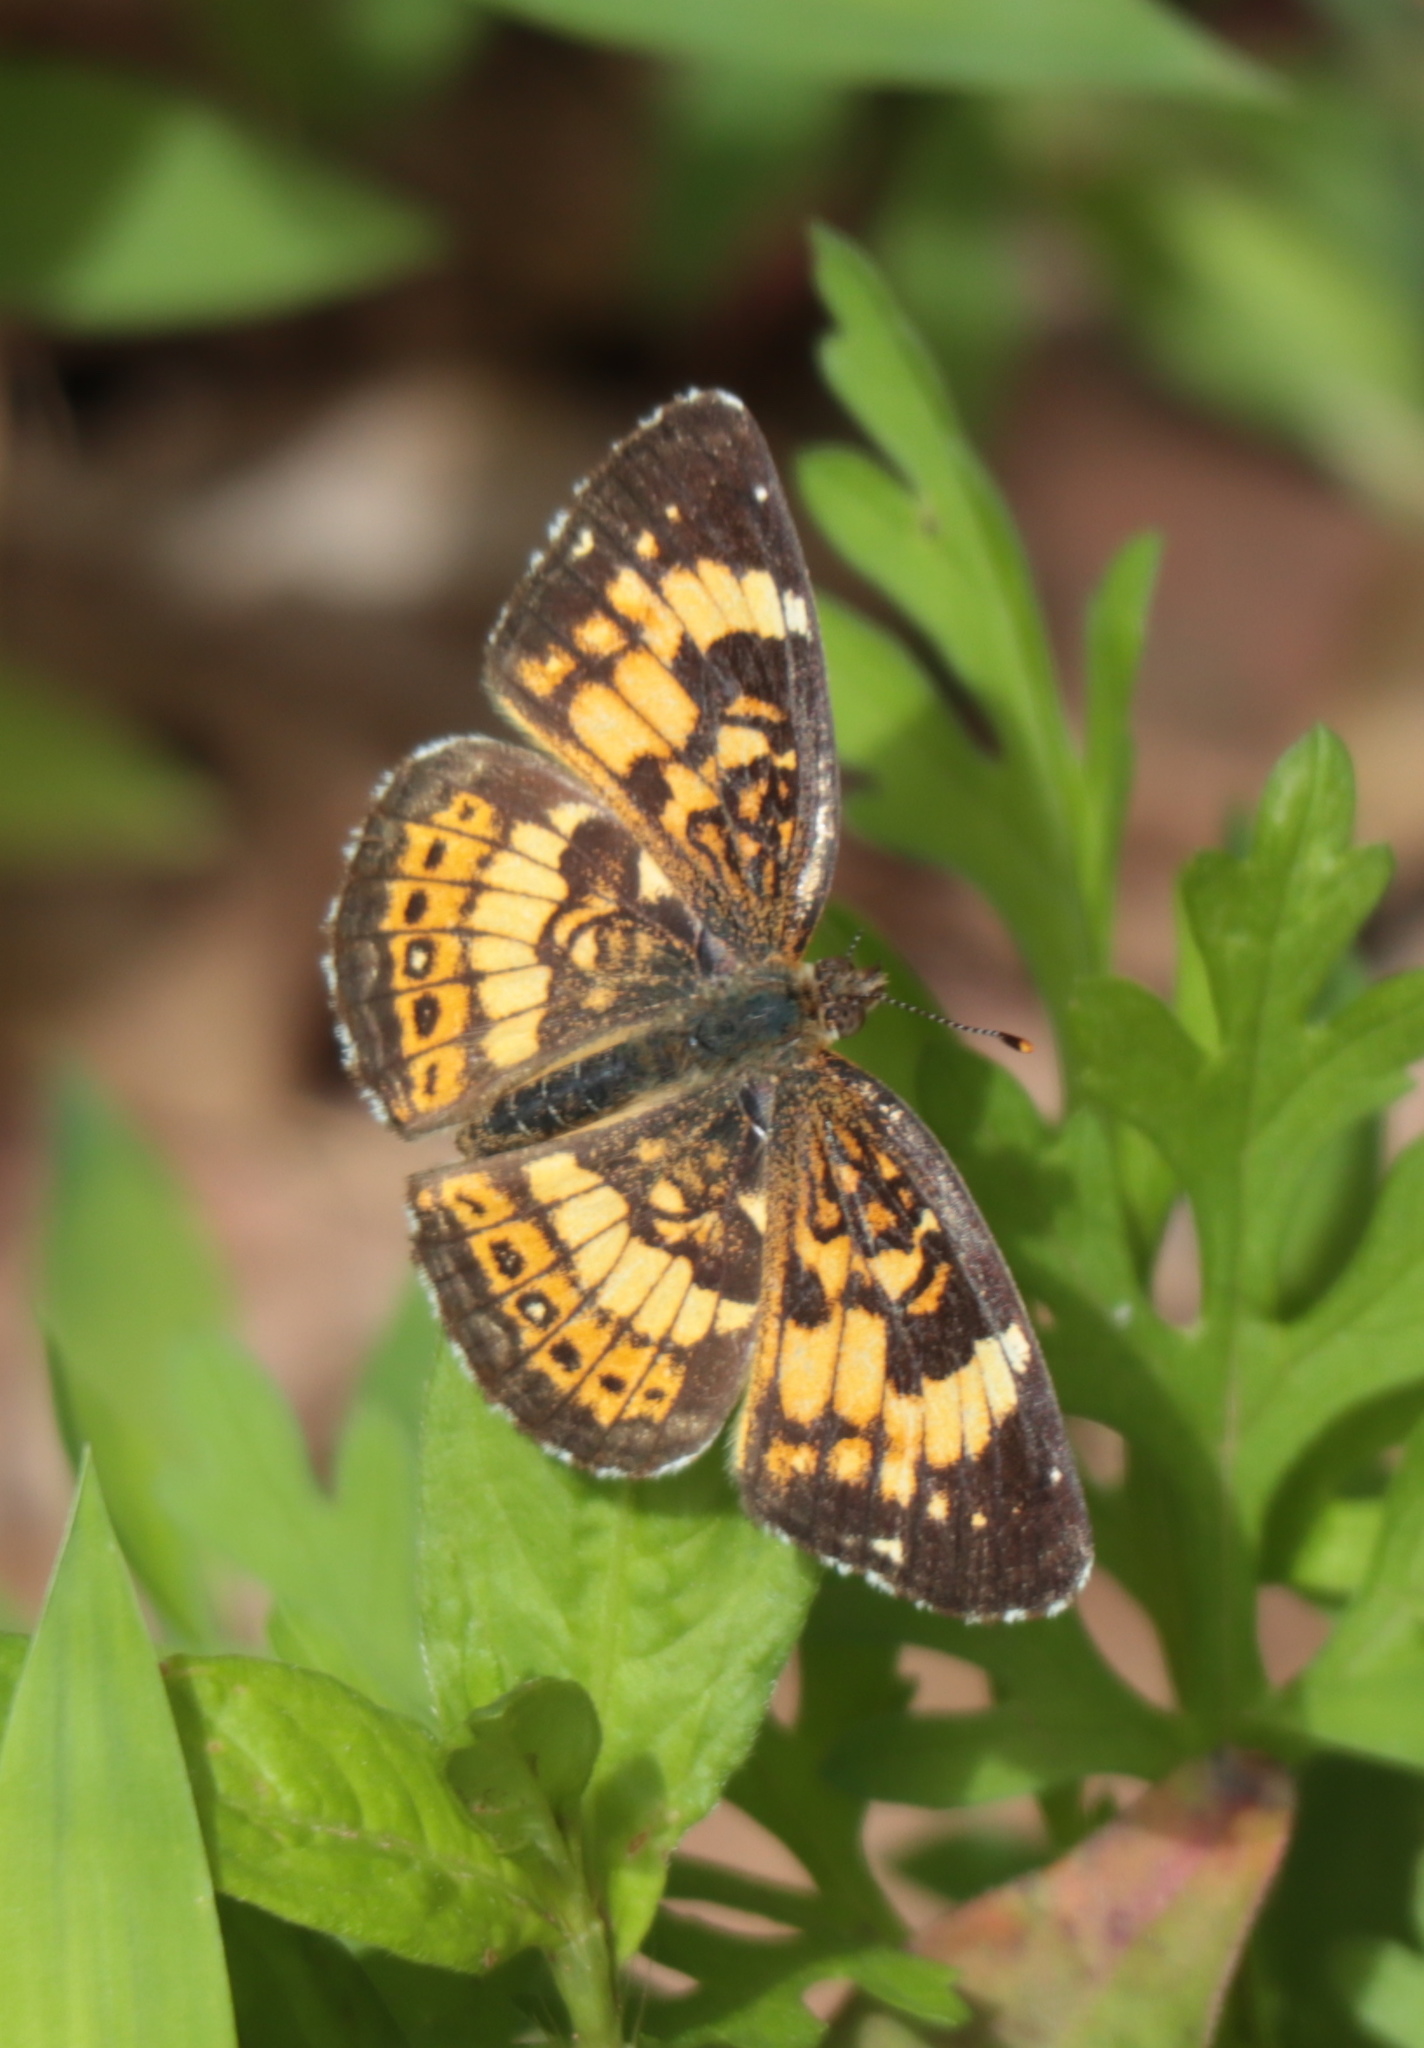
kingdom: Animalia
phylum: Arthropoda
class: Insecta
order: Lepidoptera
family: Nymphalidae
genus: Chlosyne
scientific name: Chlosyne nycteis
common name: Silvery checkerspot
